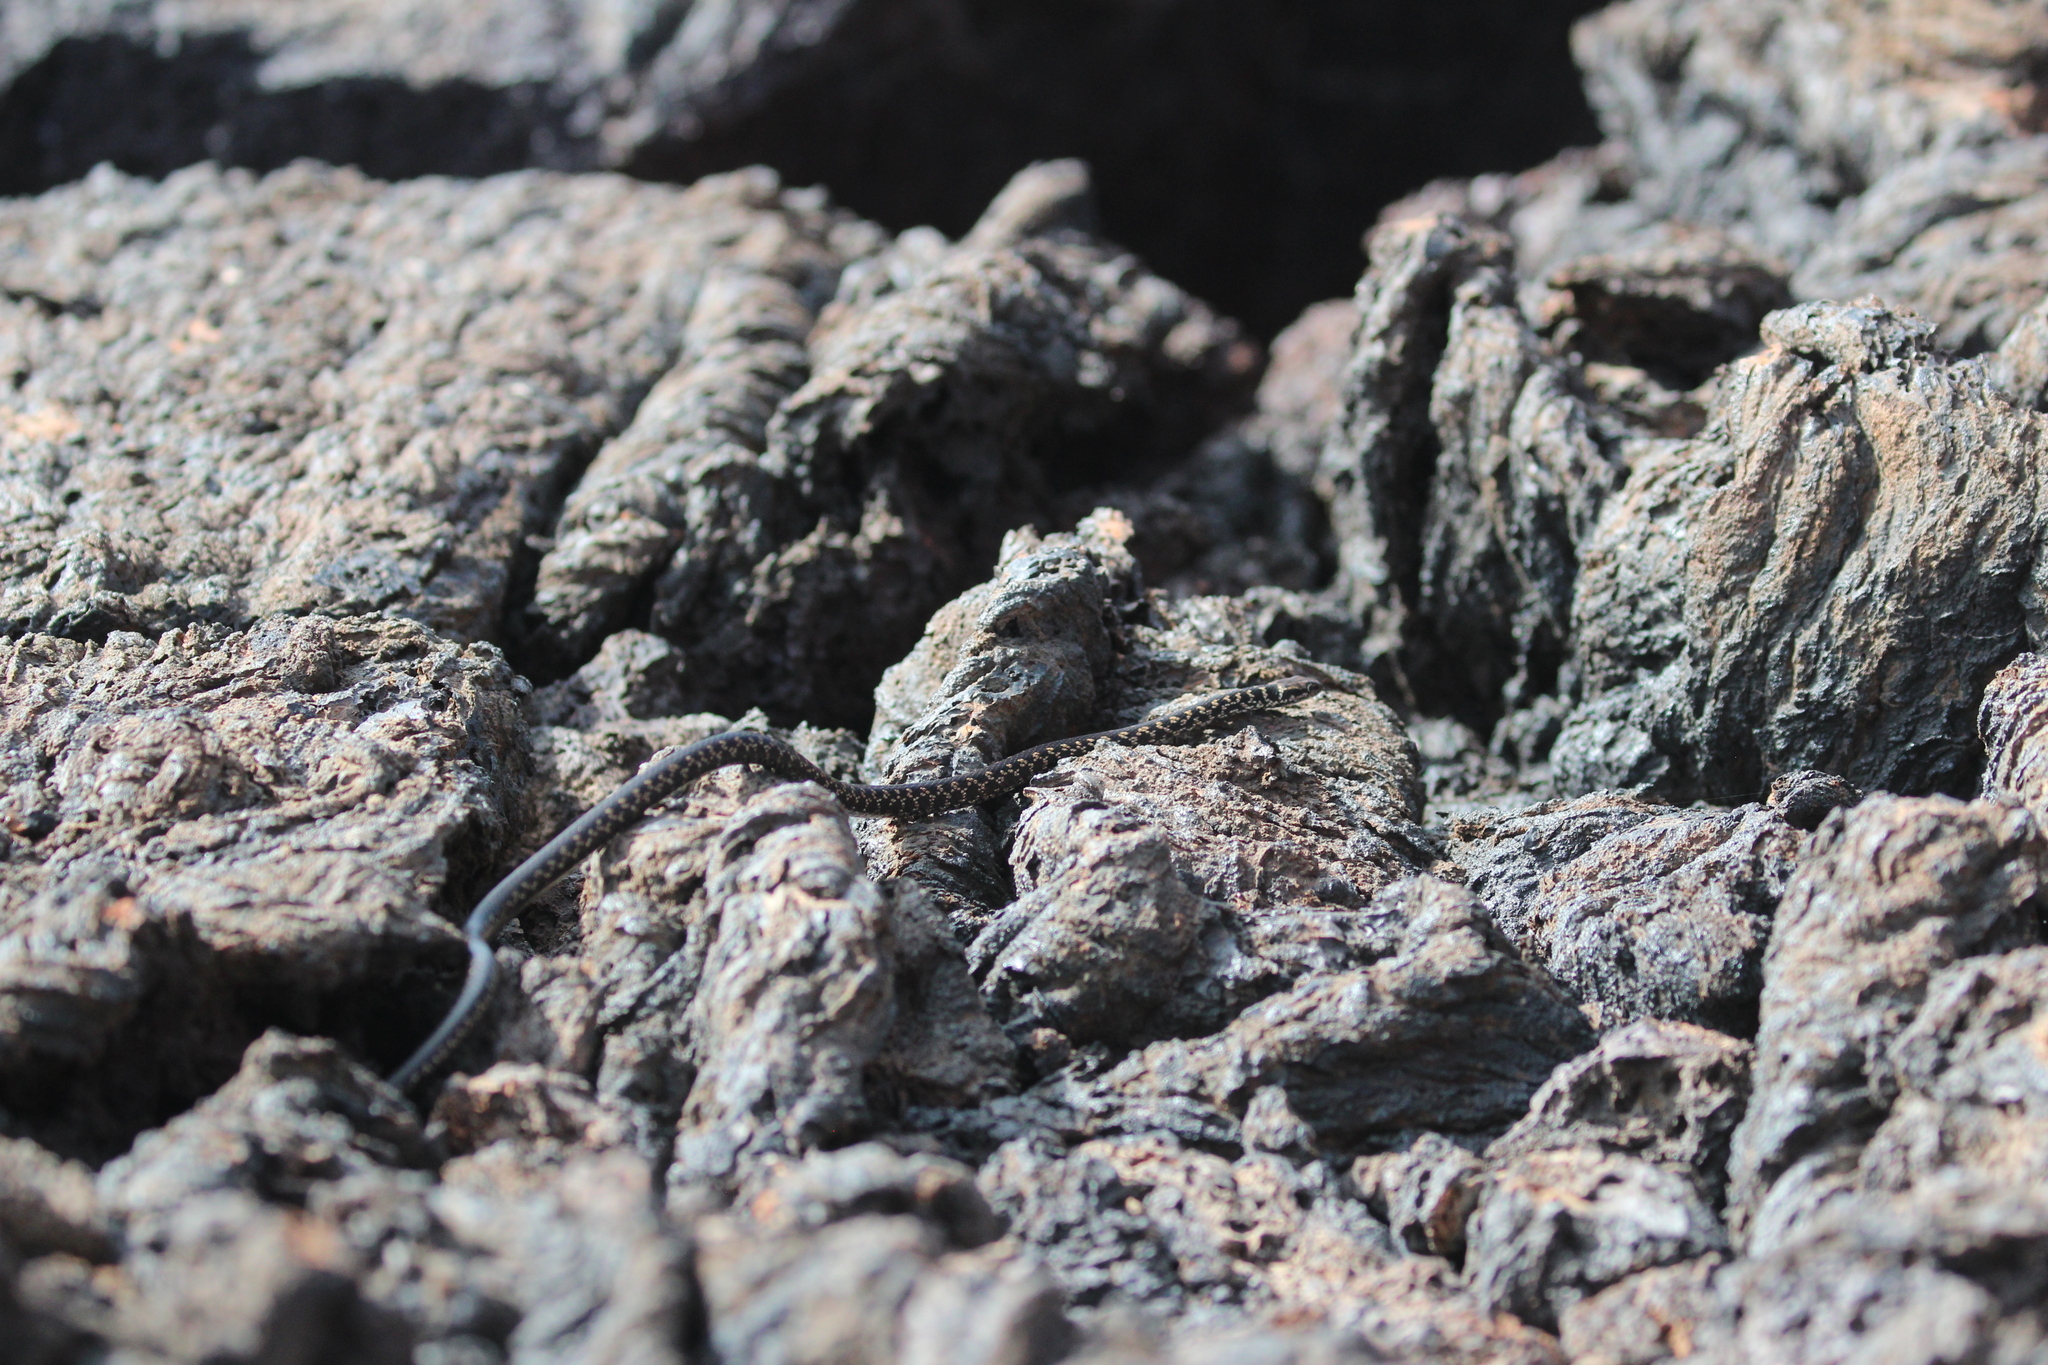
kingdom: Animalia
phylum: Chordata
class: Squamata
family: Colubridae
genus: Pseudalsophis
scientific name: Pseudalsophis occidentalis
